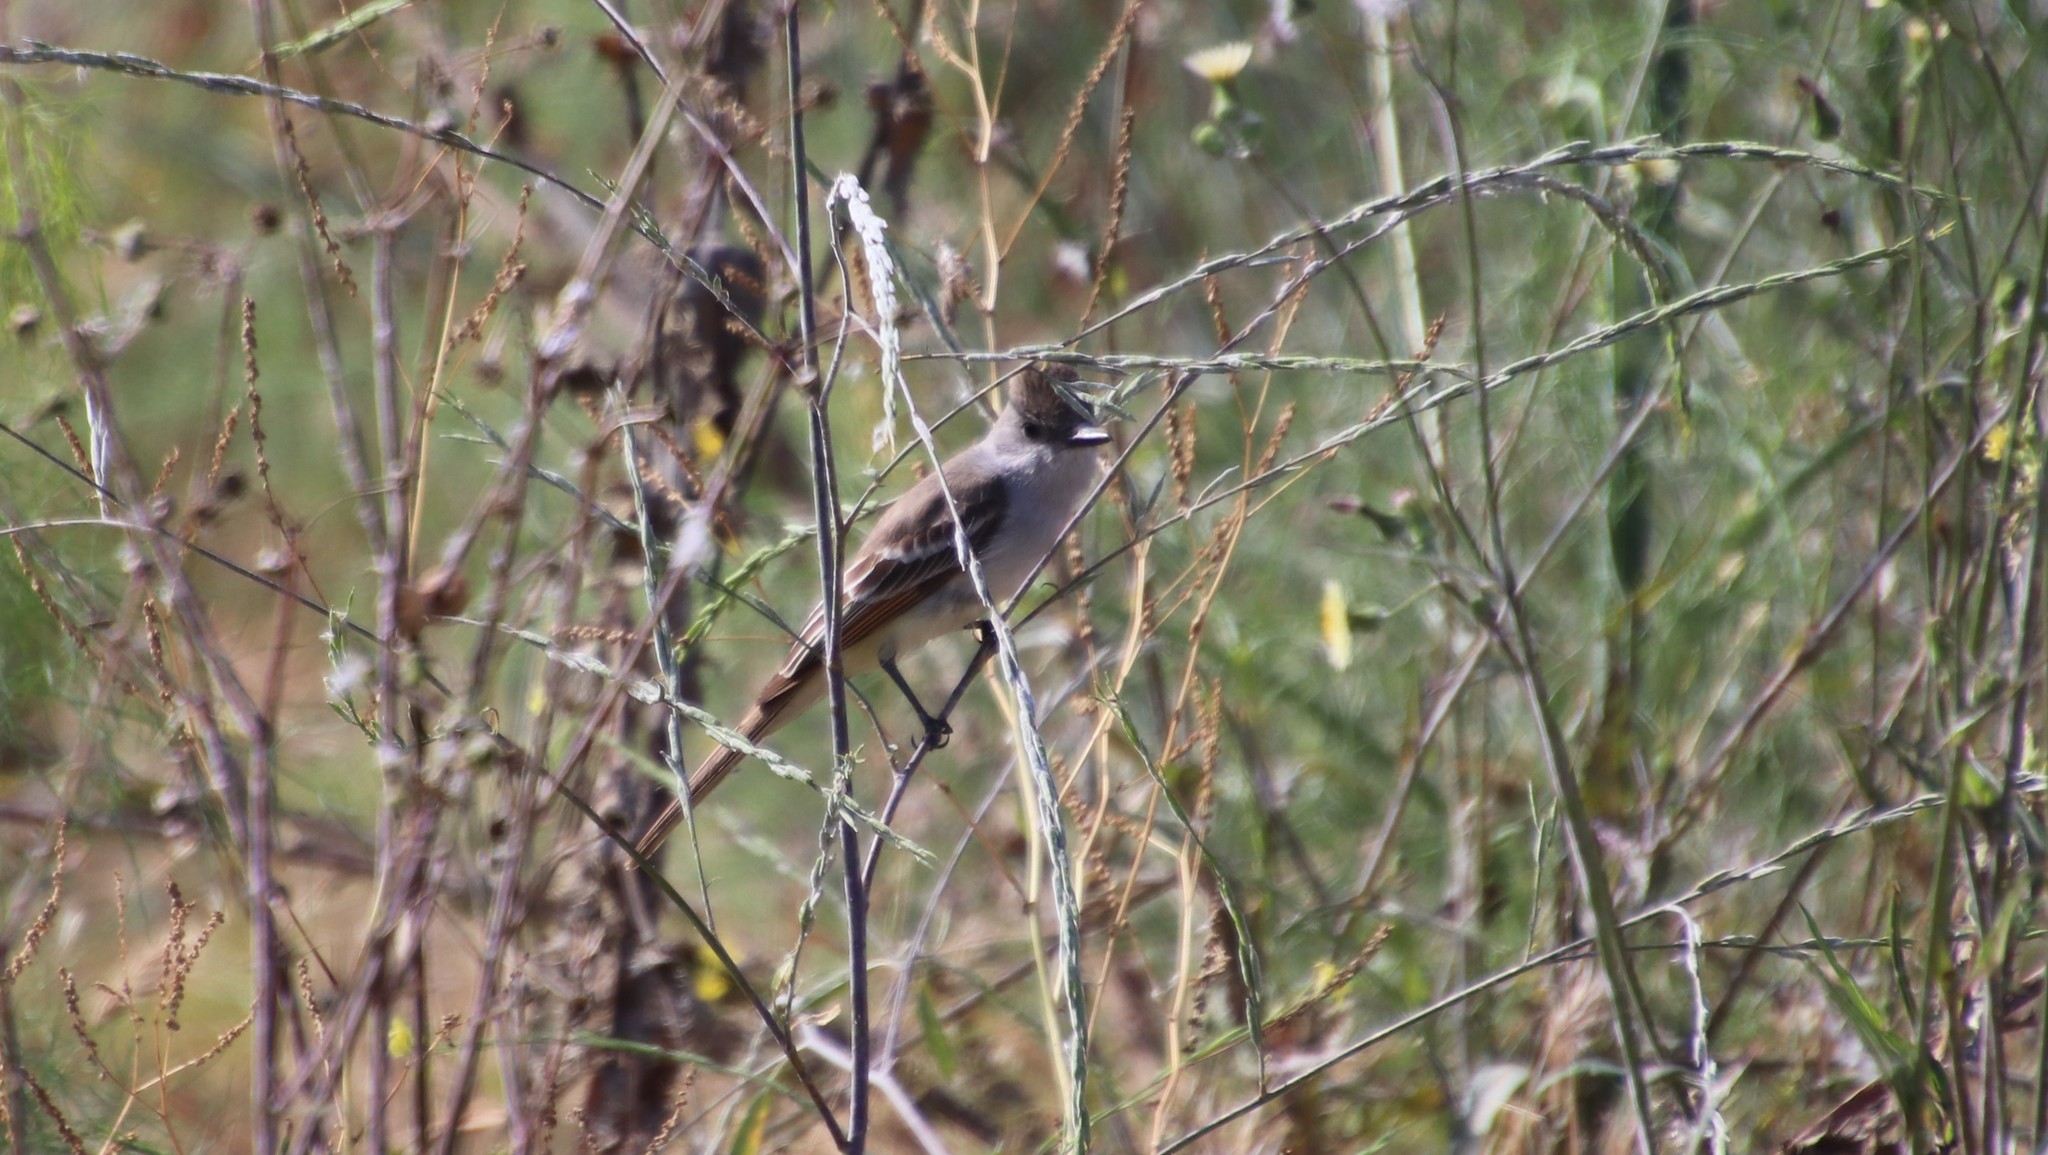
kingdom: Animalia
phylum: Chordata
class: Aves
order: Passeriformes
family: Tyrannidae
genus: Myiarchus
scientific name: Myiarchus cinerascens
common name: Ash-throated flycatcher
